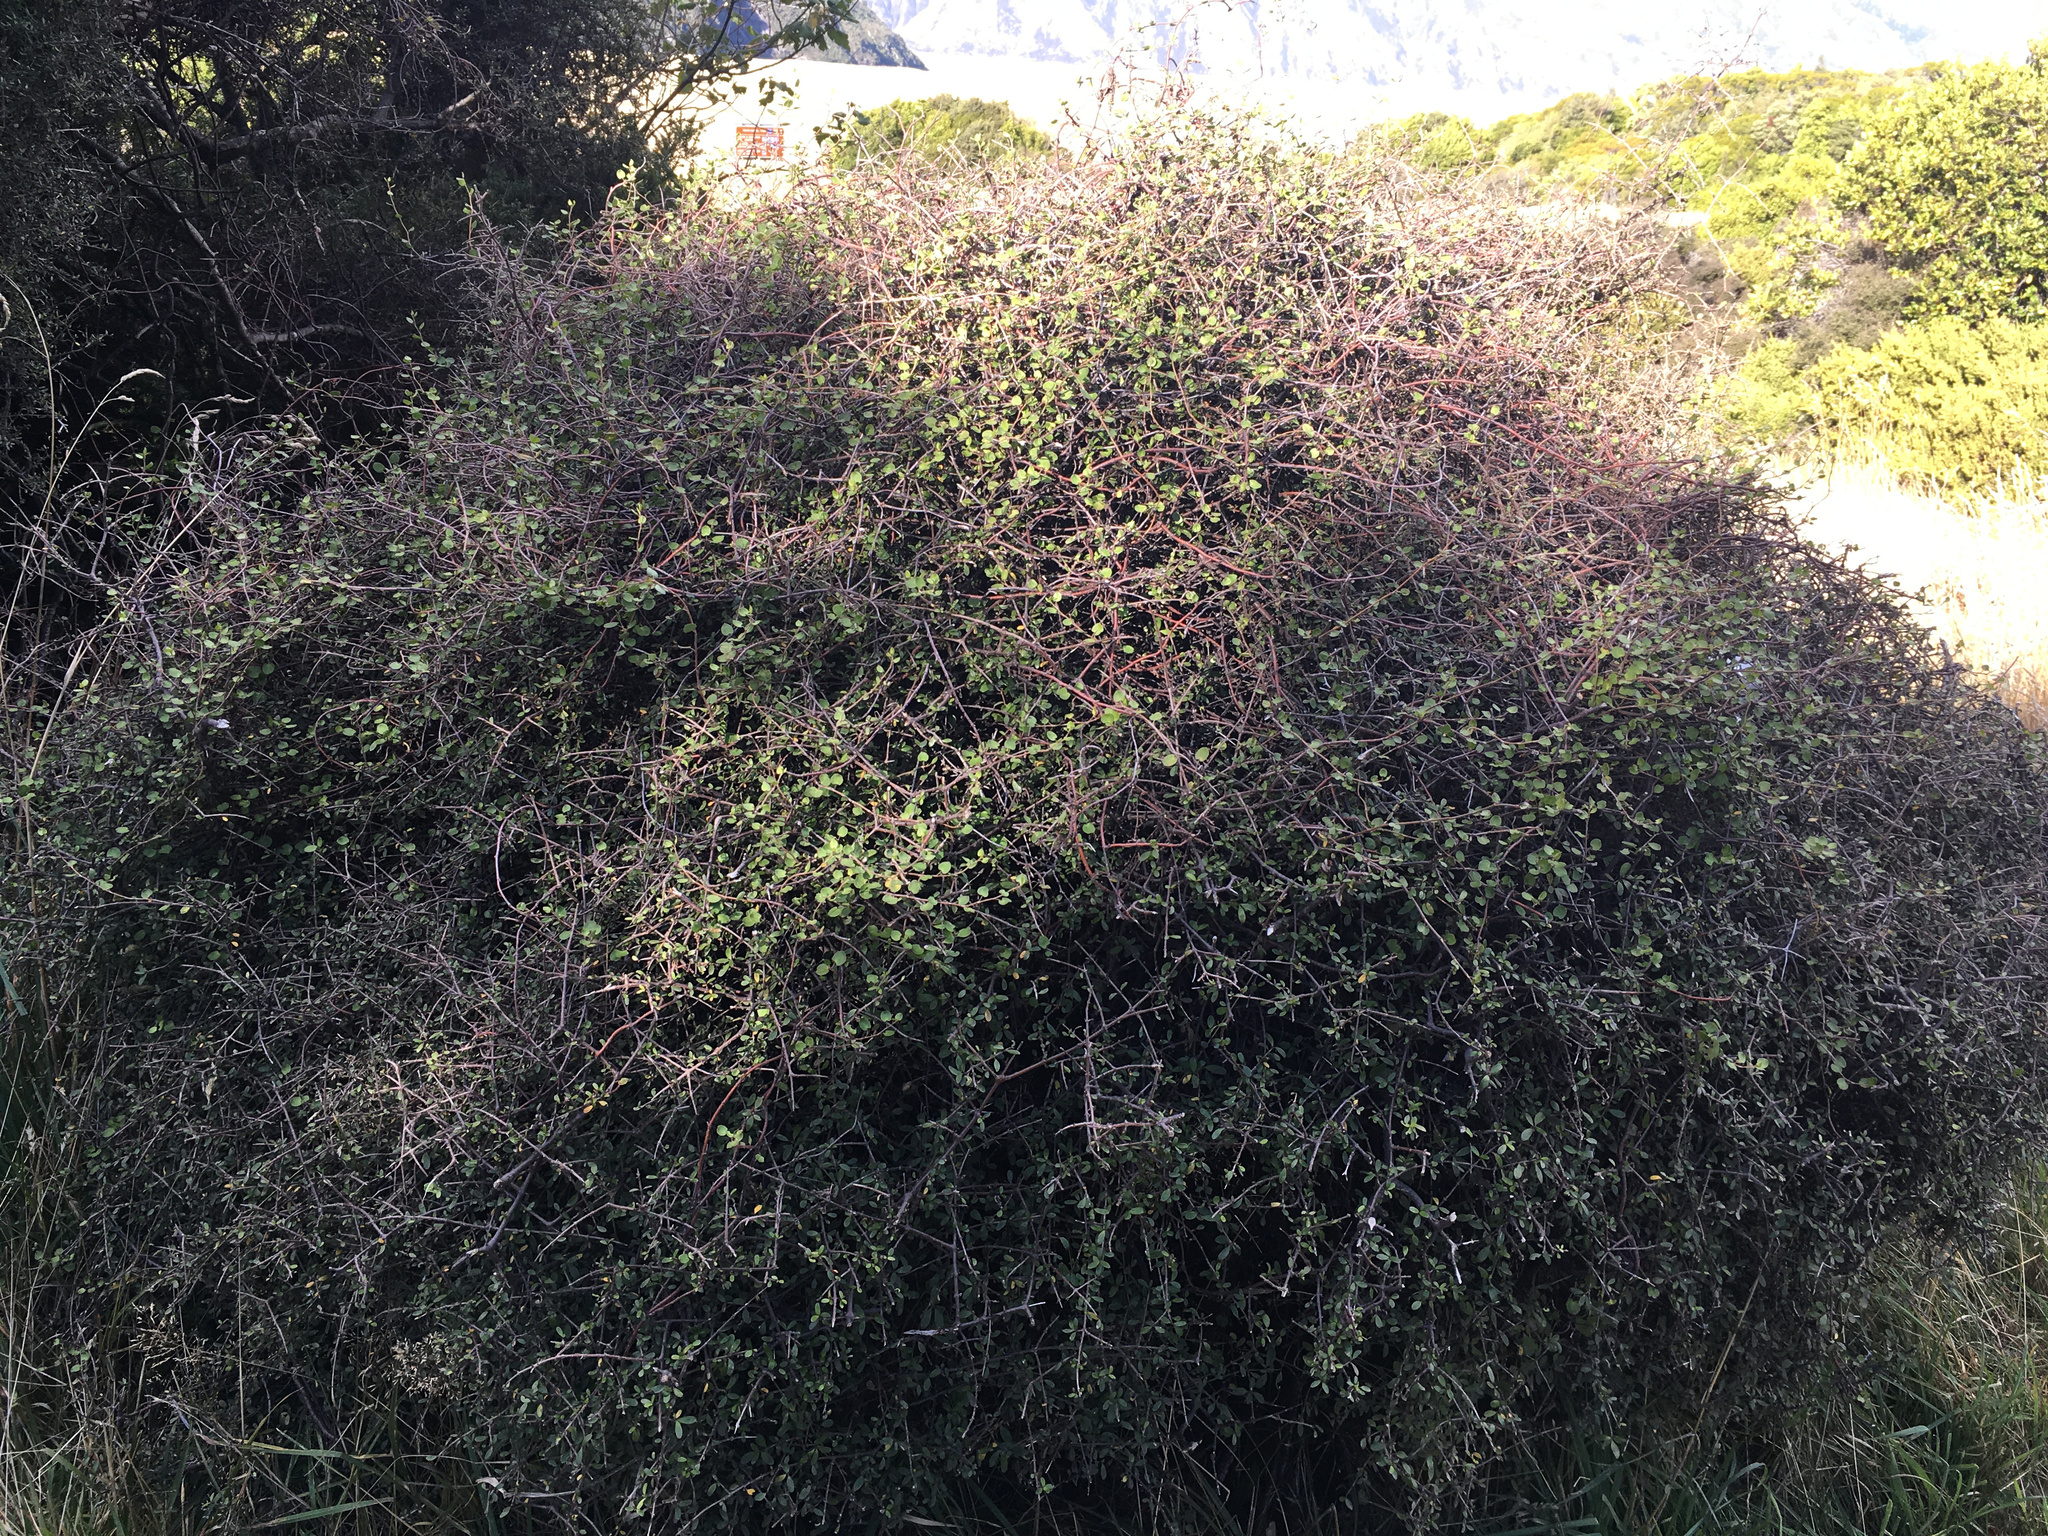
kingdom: Plantae
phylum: Tracheophyta
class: Magnoliopsida
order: Caryophyllales
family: Polygonaceae
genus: Muehlenbeckia
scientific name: Muehlenbeckia complexa
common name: Wireplant
